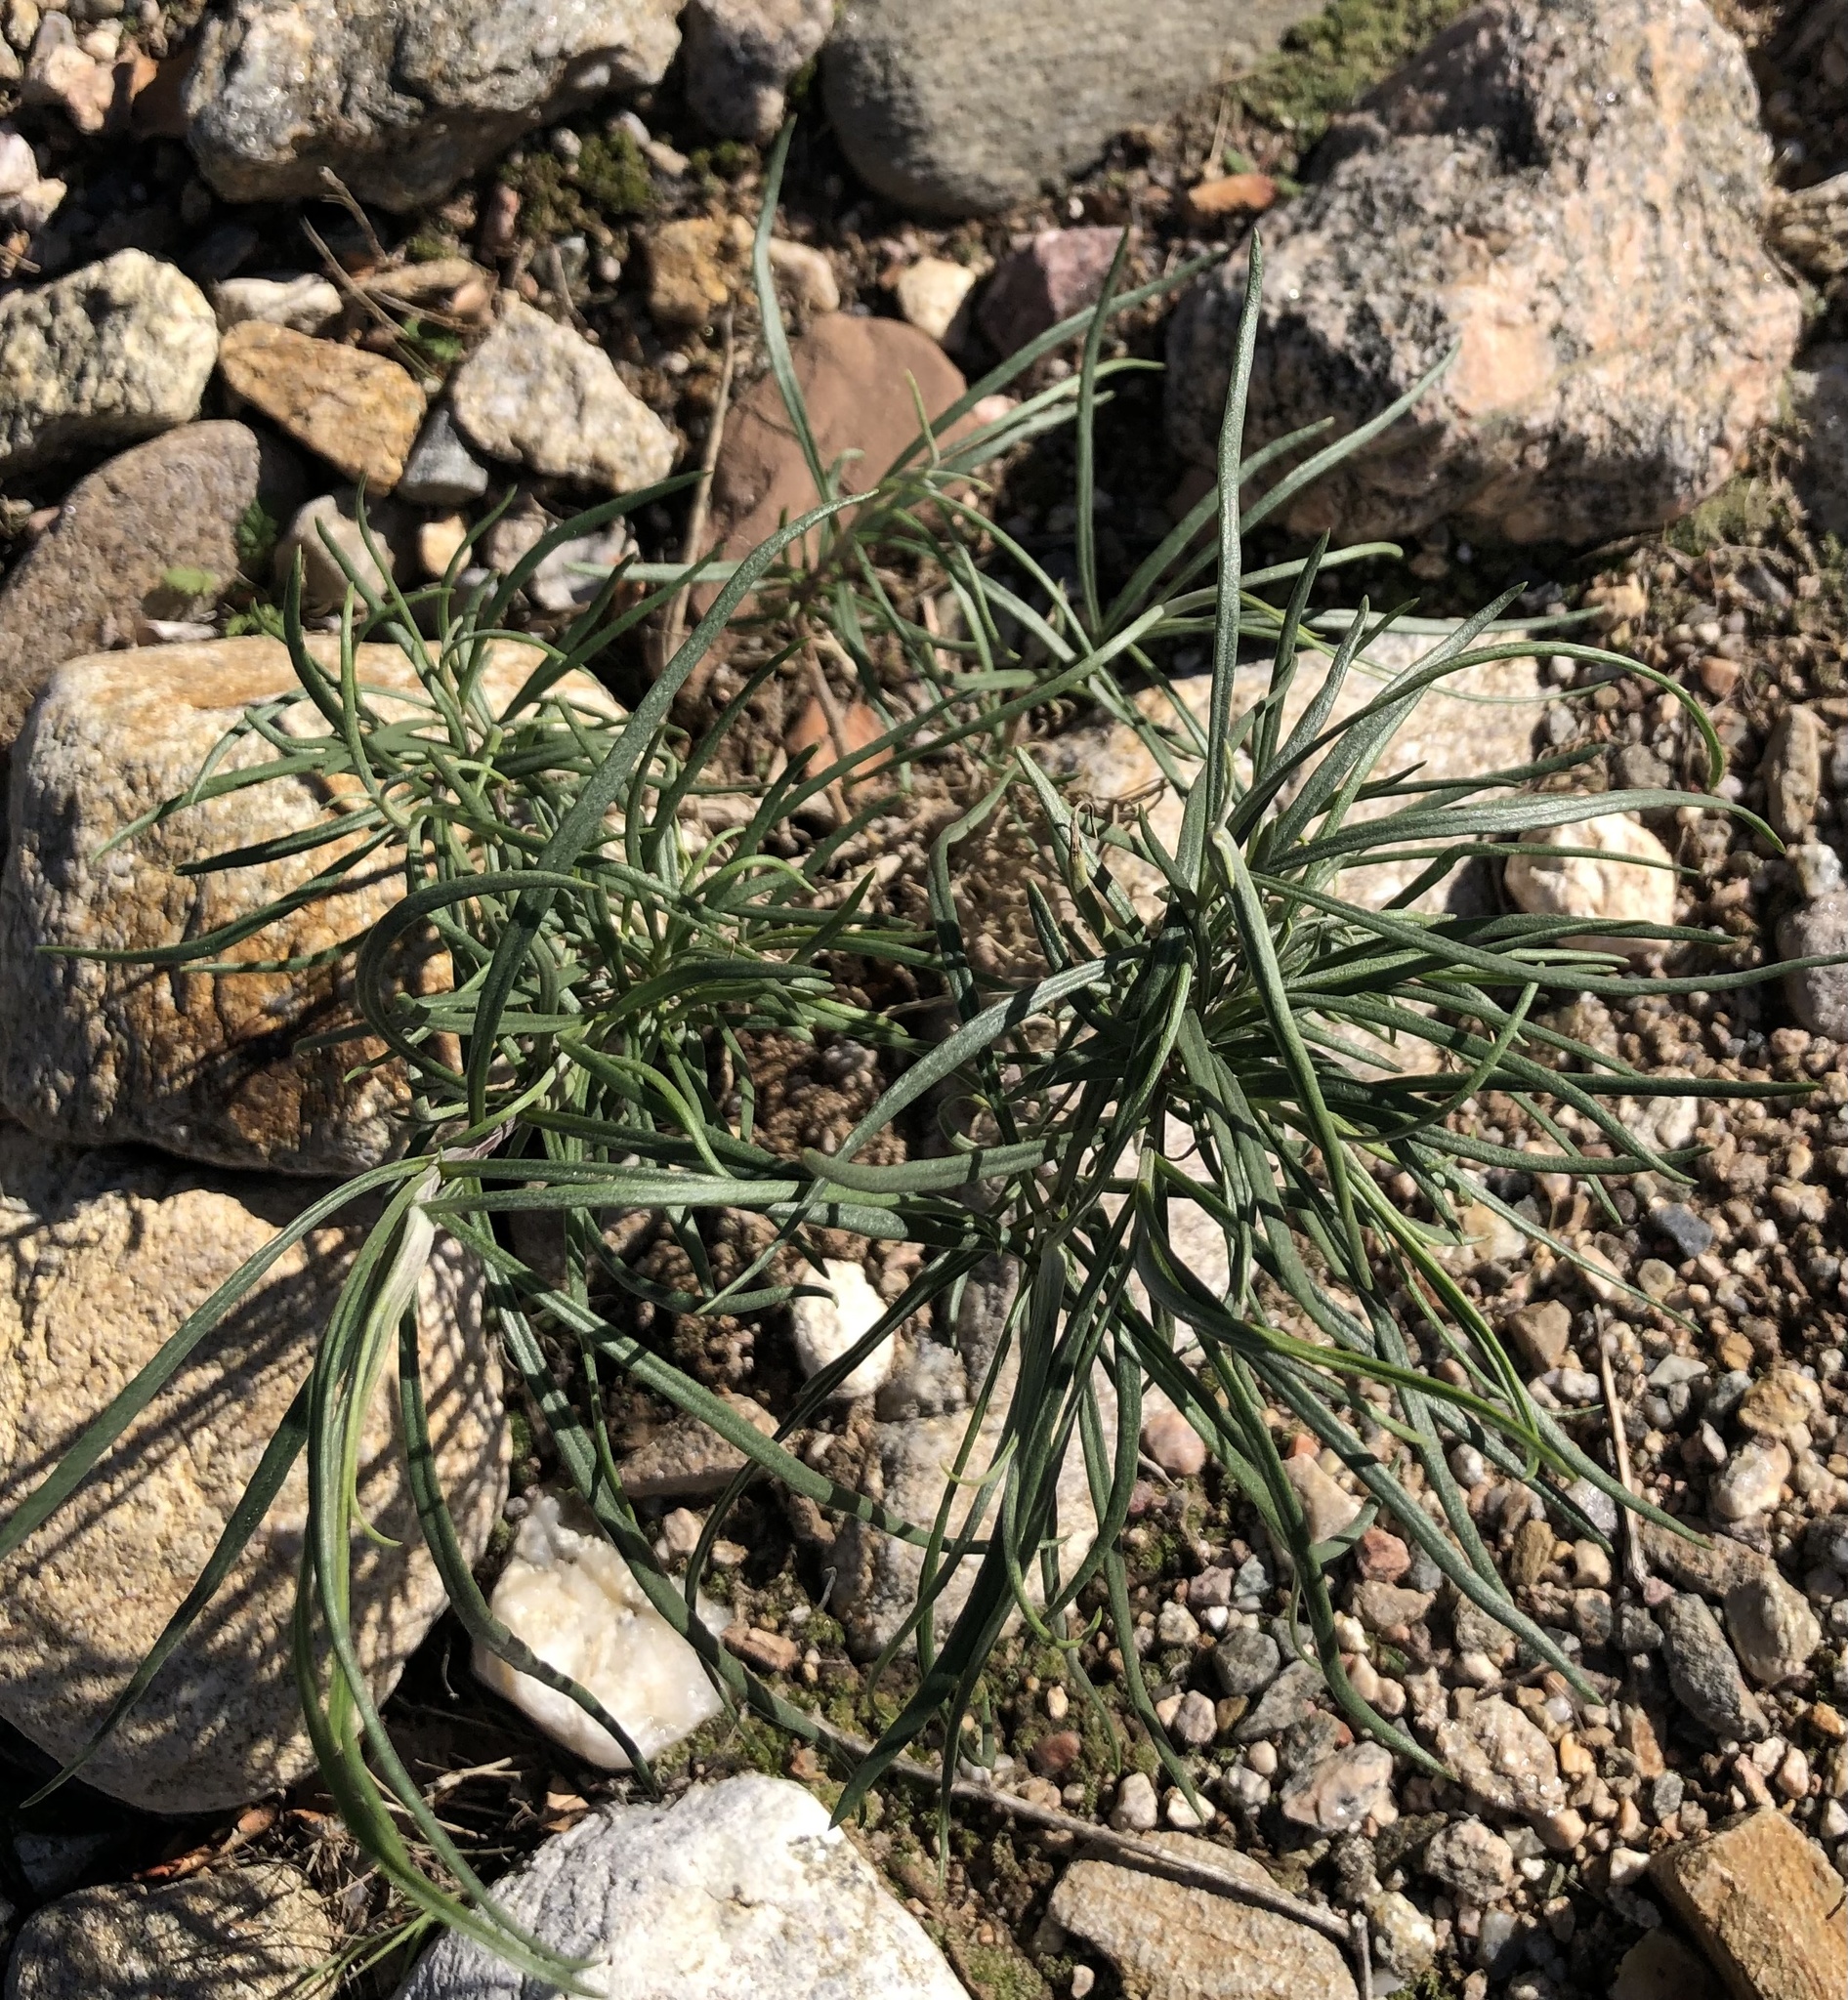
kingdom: Plantae
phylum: Tracheophyta
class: Magnoliopsida
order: Gentianales
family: Apocynaceae
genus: Asclepias
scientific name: Asclepias fascicularis
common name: Mexican milkweed
